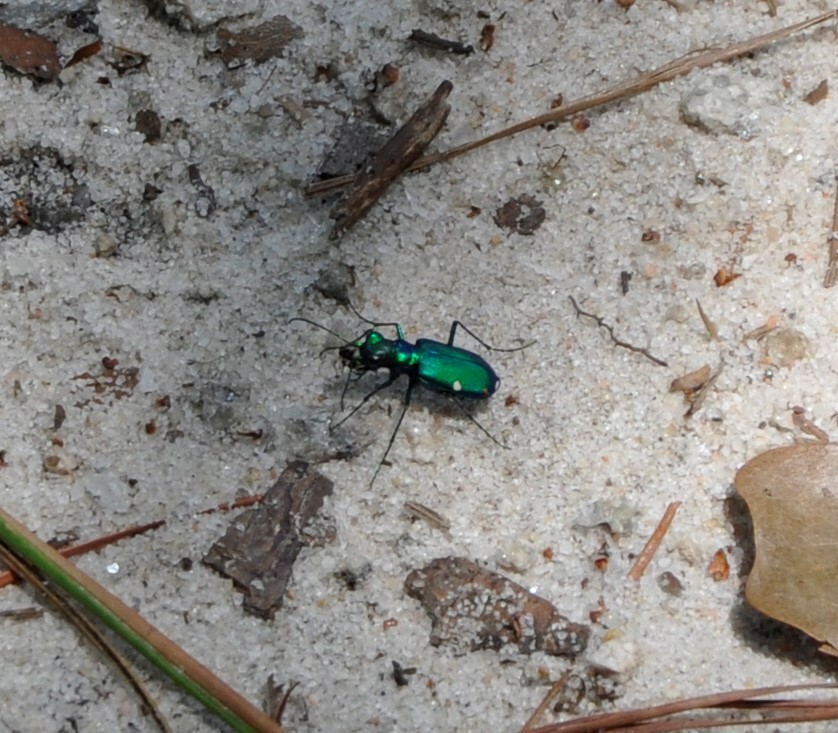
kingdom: Animalia
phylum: Arthropoda
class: Insecta
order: Coleoptera
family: Carabidae
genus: Cicindela
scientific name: Cicindela sexguttata
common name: Six-spotted tiger beetle
